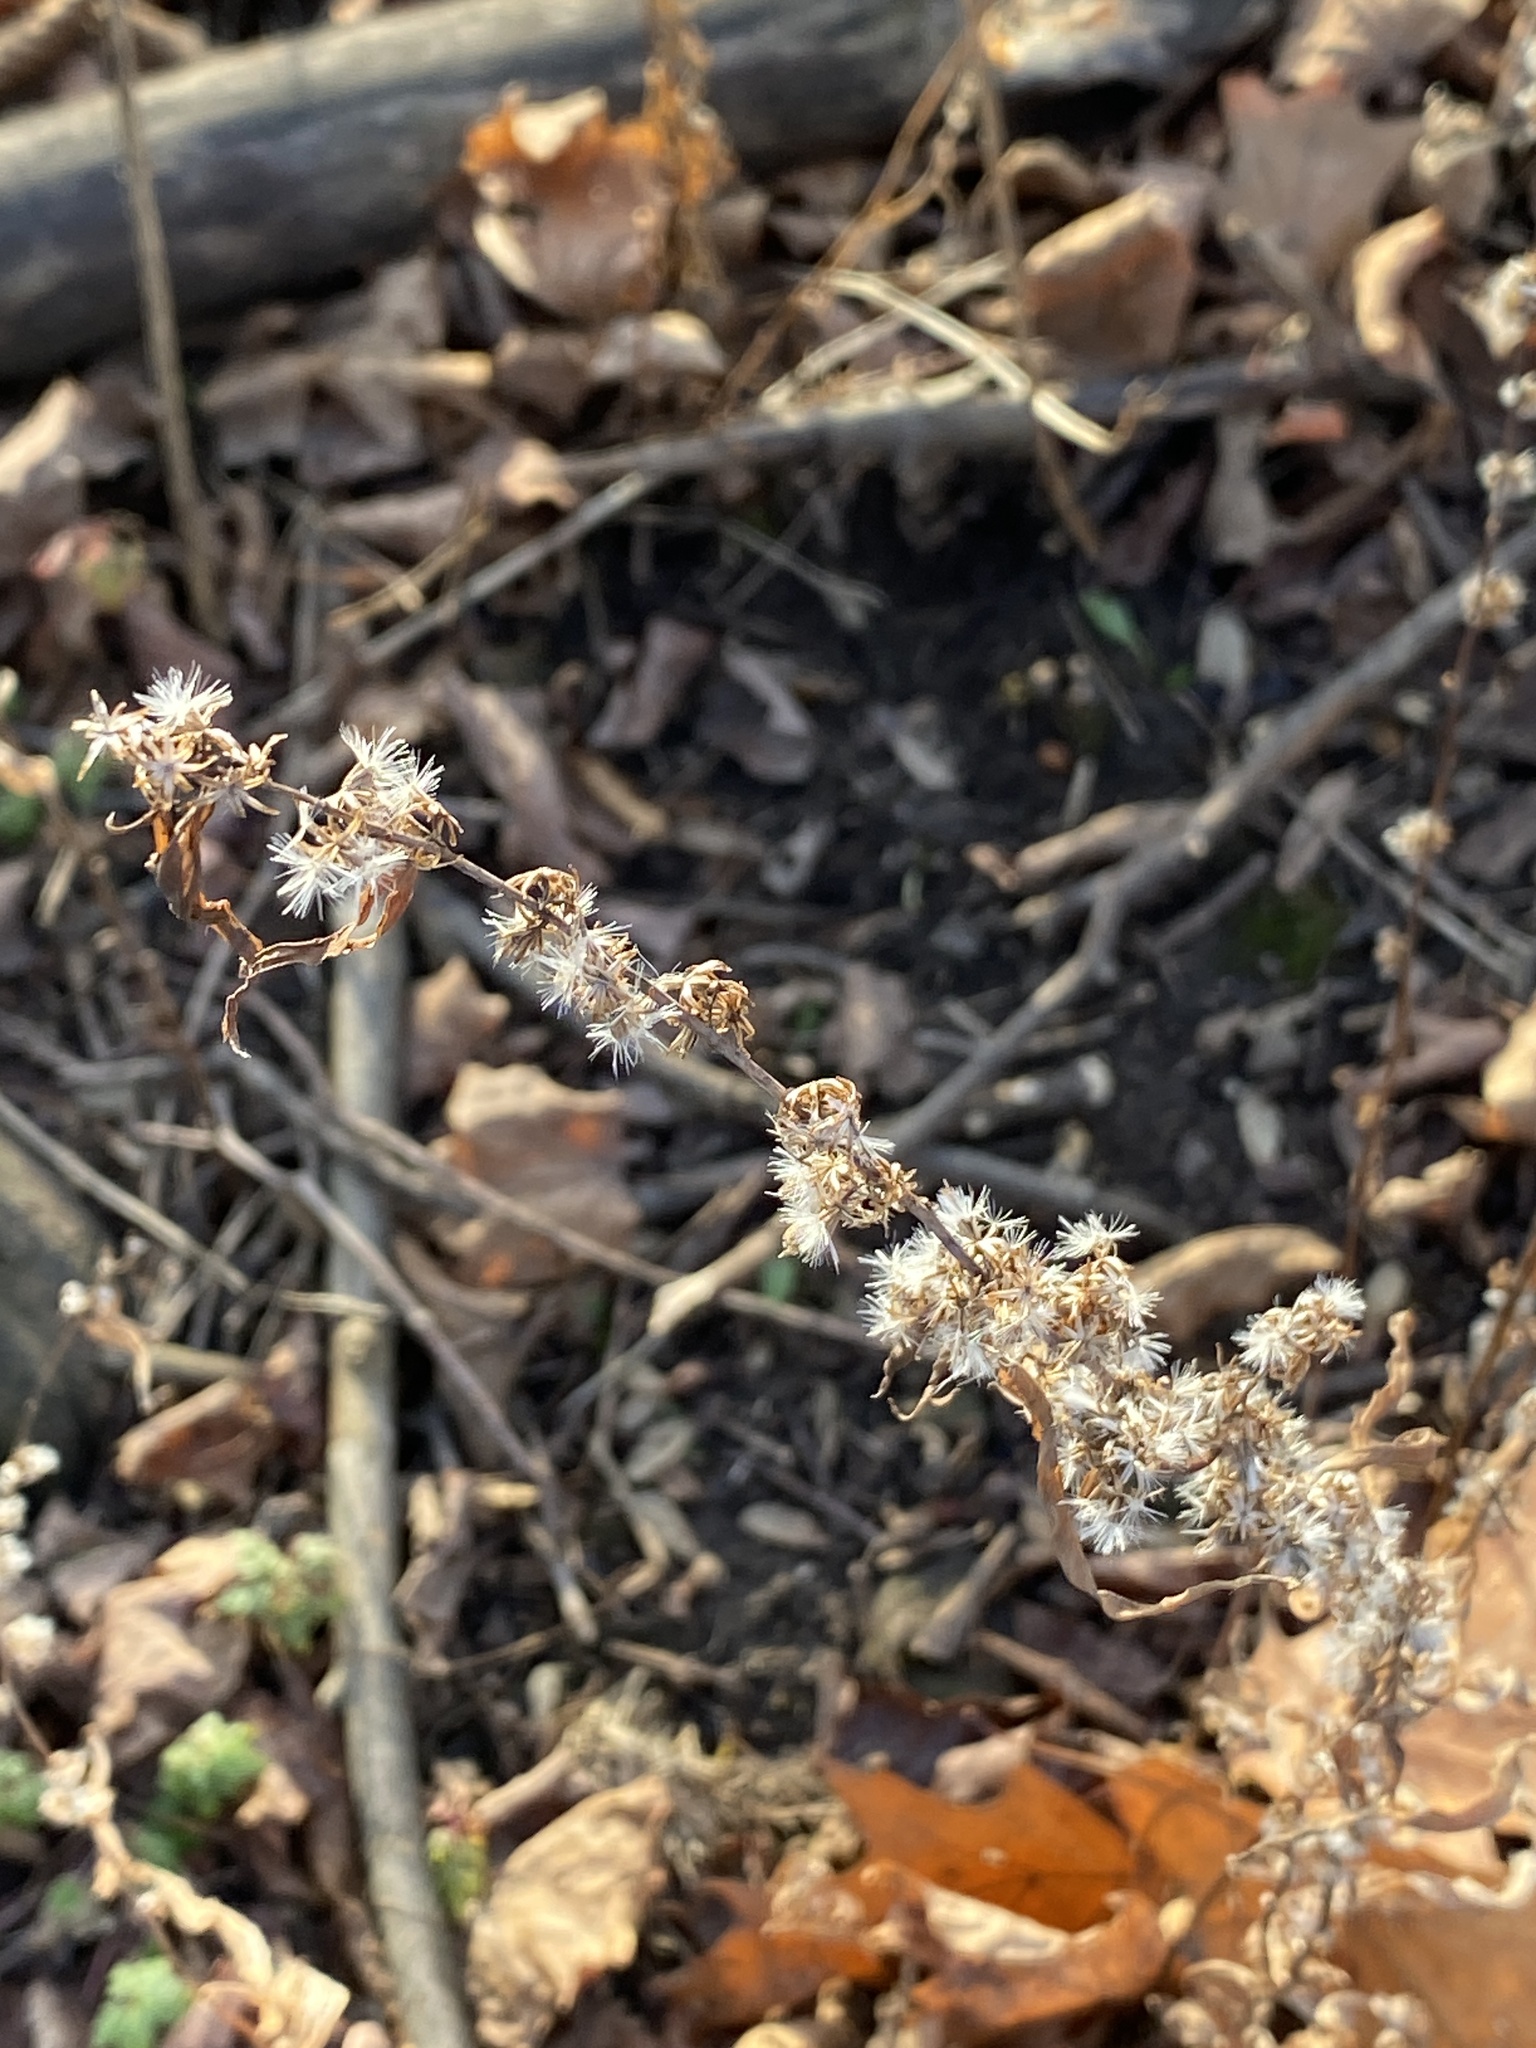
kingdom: Plantae
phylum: Tracheophyta
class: Magnoliopsida
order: Asterales
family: Asteraceae
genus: Solidago
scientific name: Solidago caesia
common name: Woodland goldenrod
